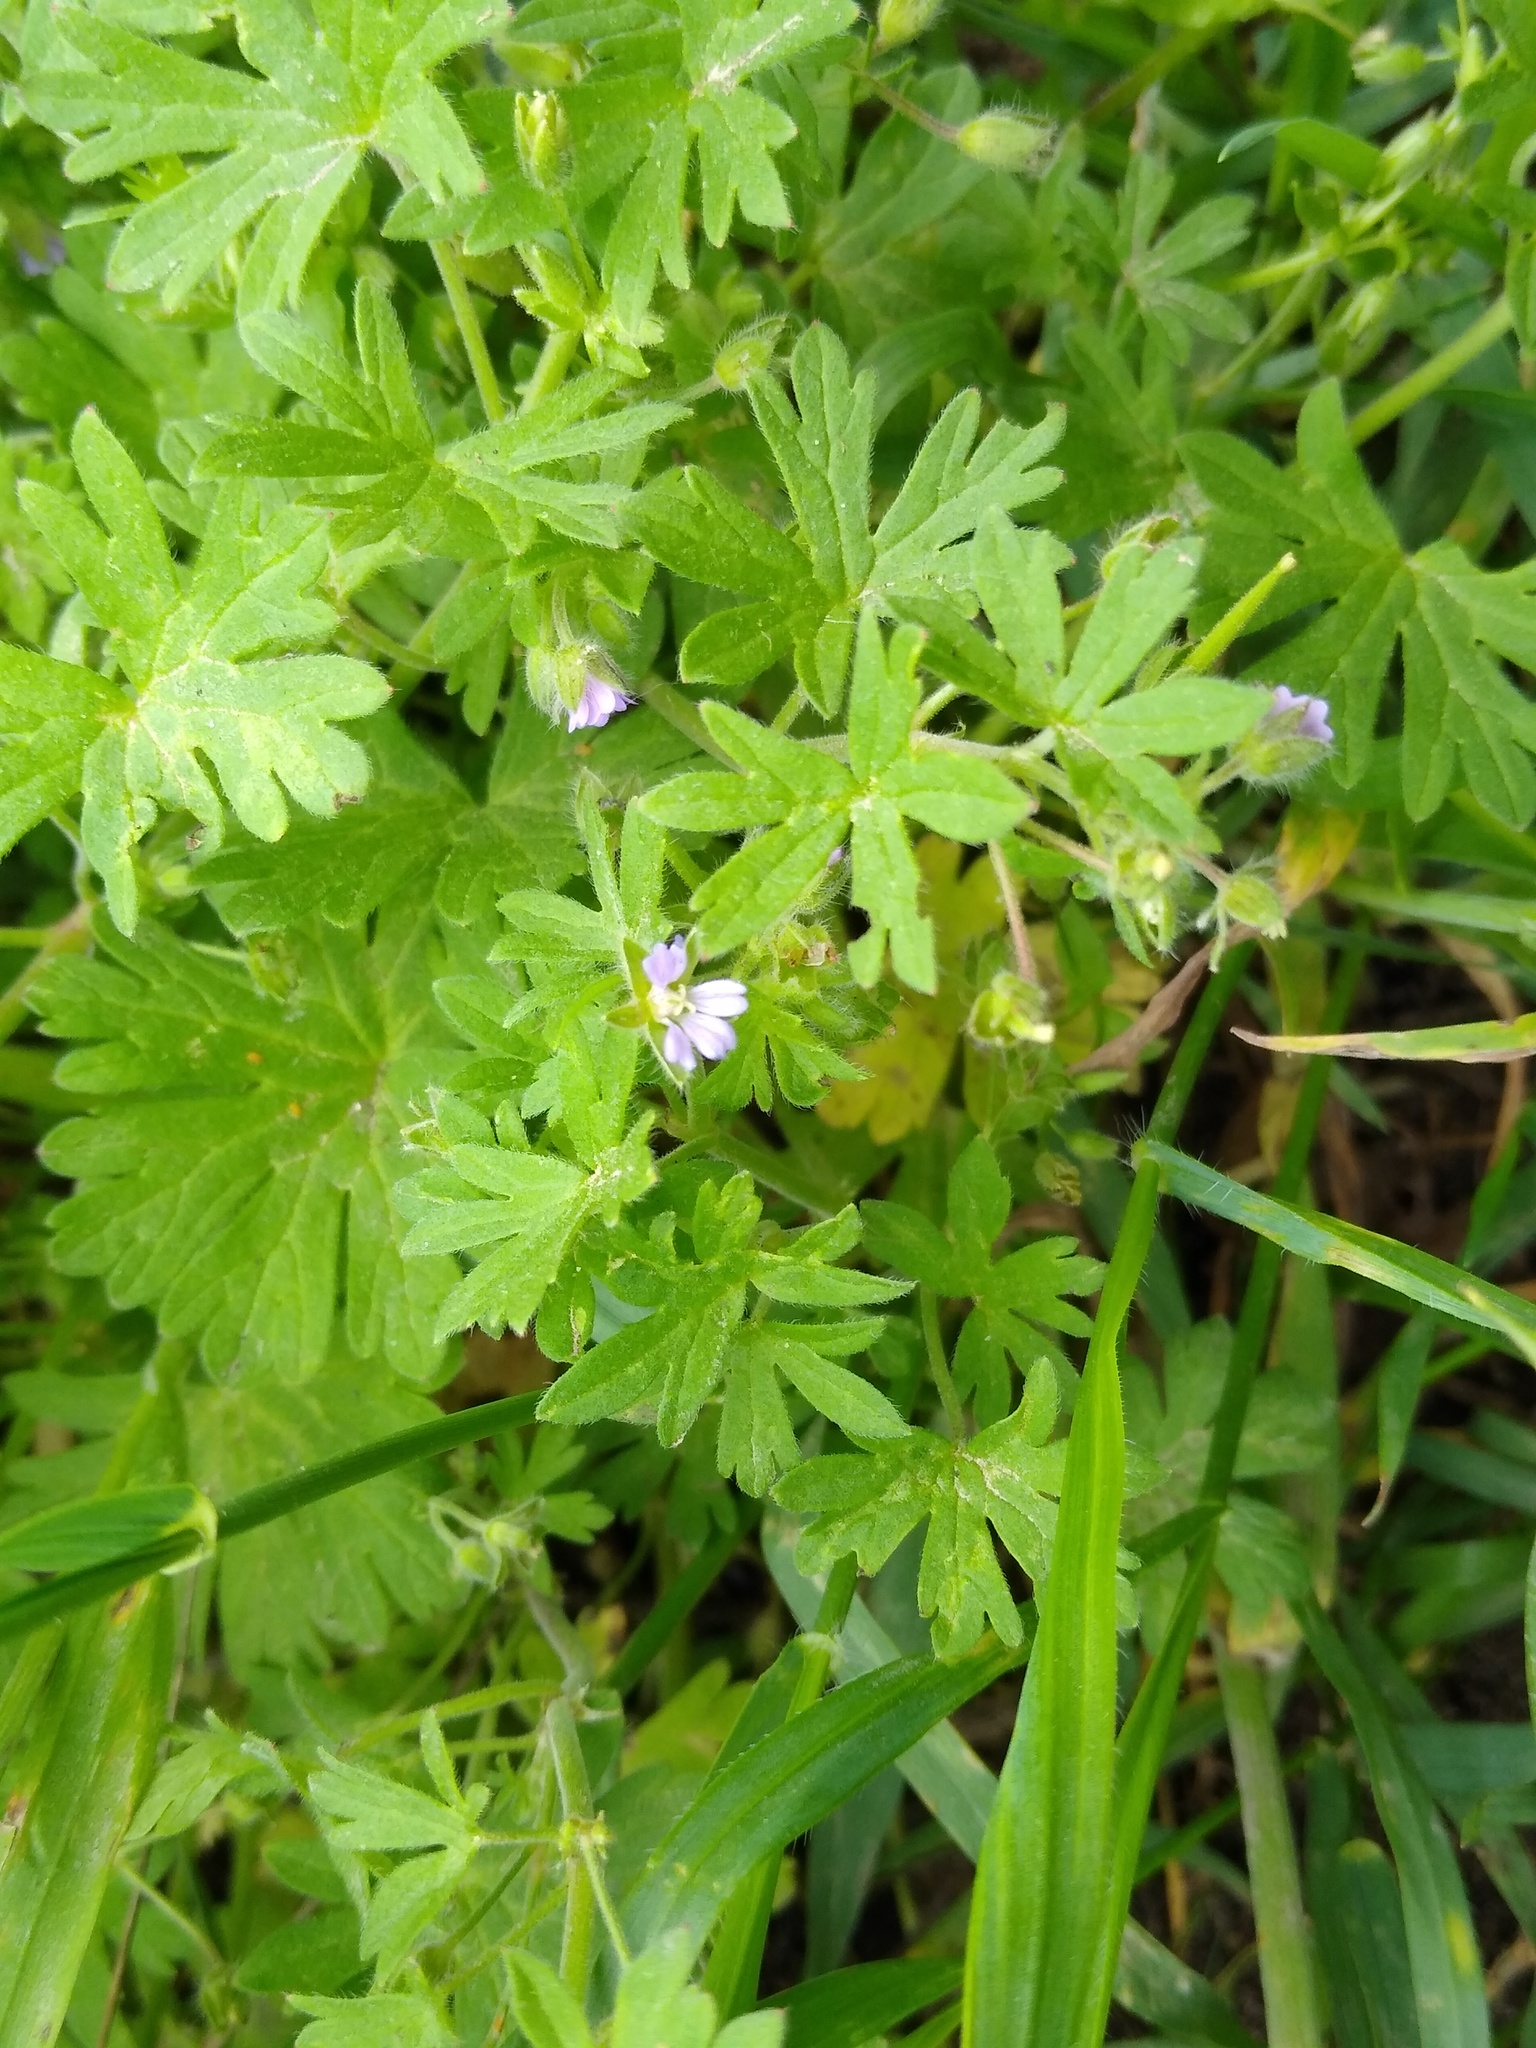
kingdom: Plantae
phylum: Tracheophyta
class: Magnoliopsida
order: Geraniales
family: Geraniaceae
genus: Geranium
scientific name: Geranium pusillum
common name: Small geranium
